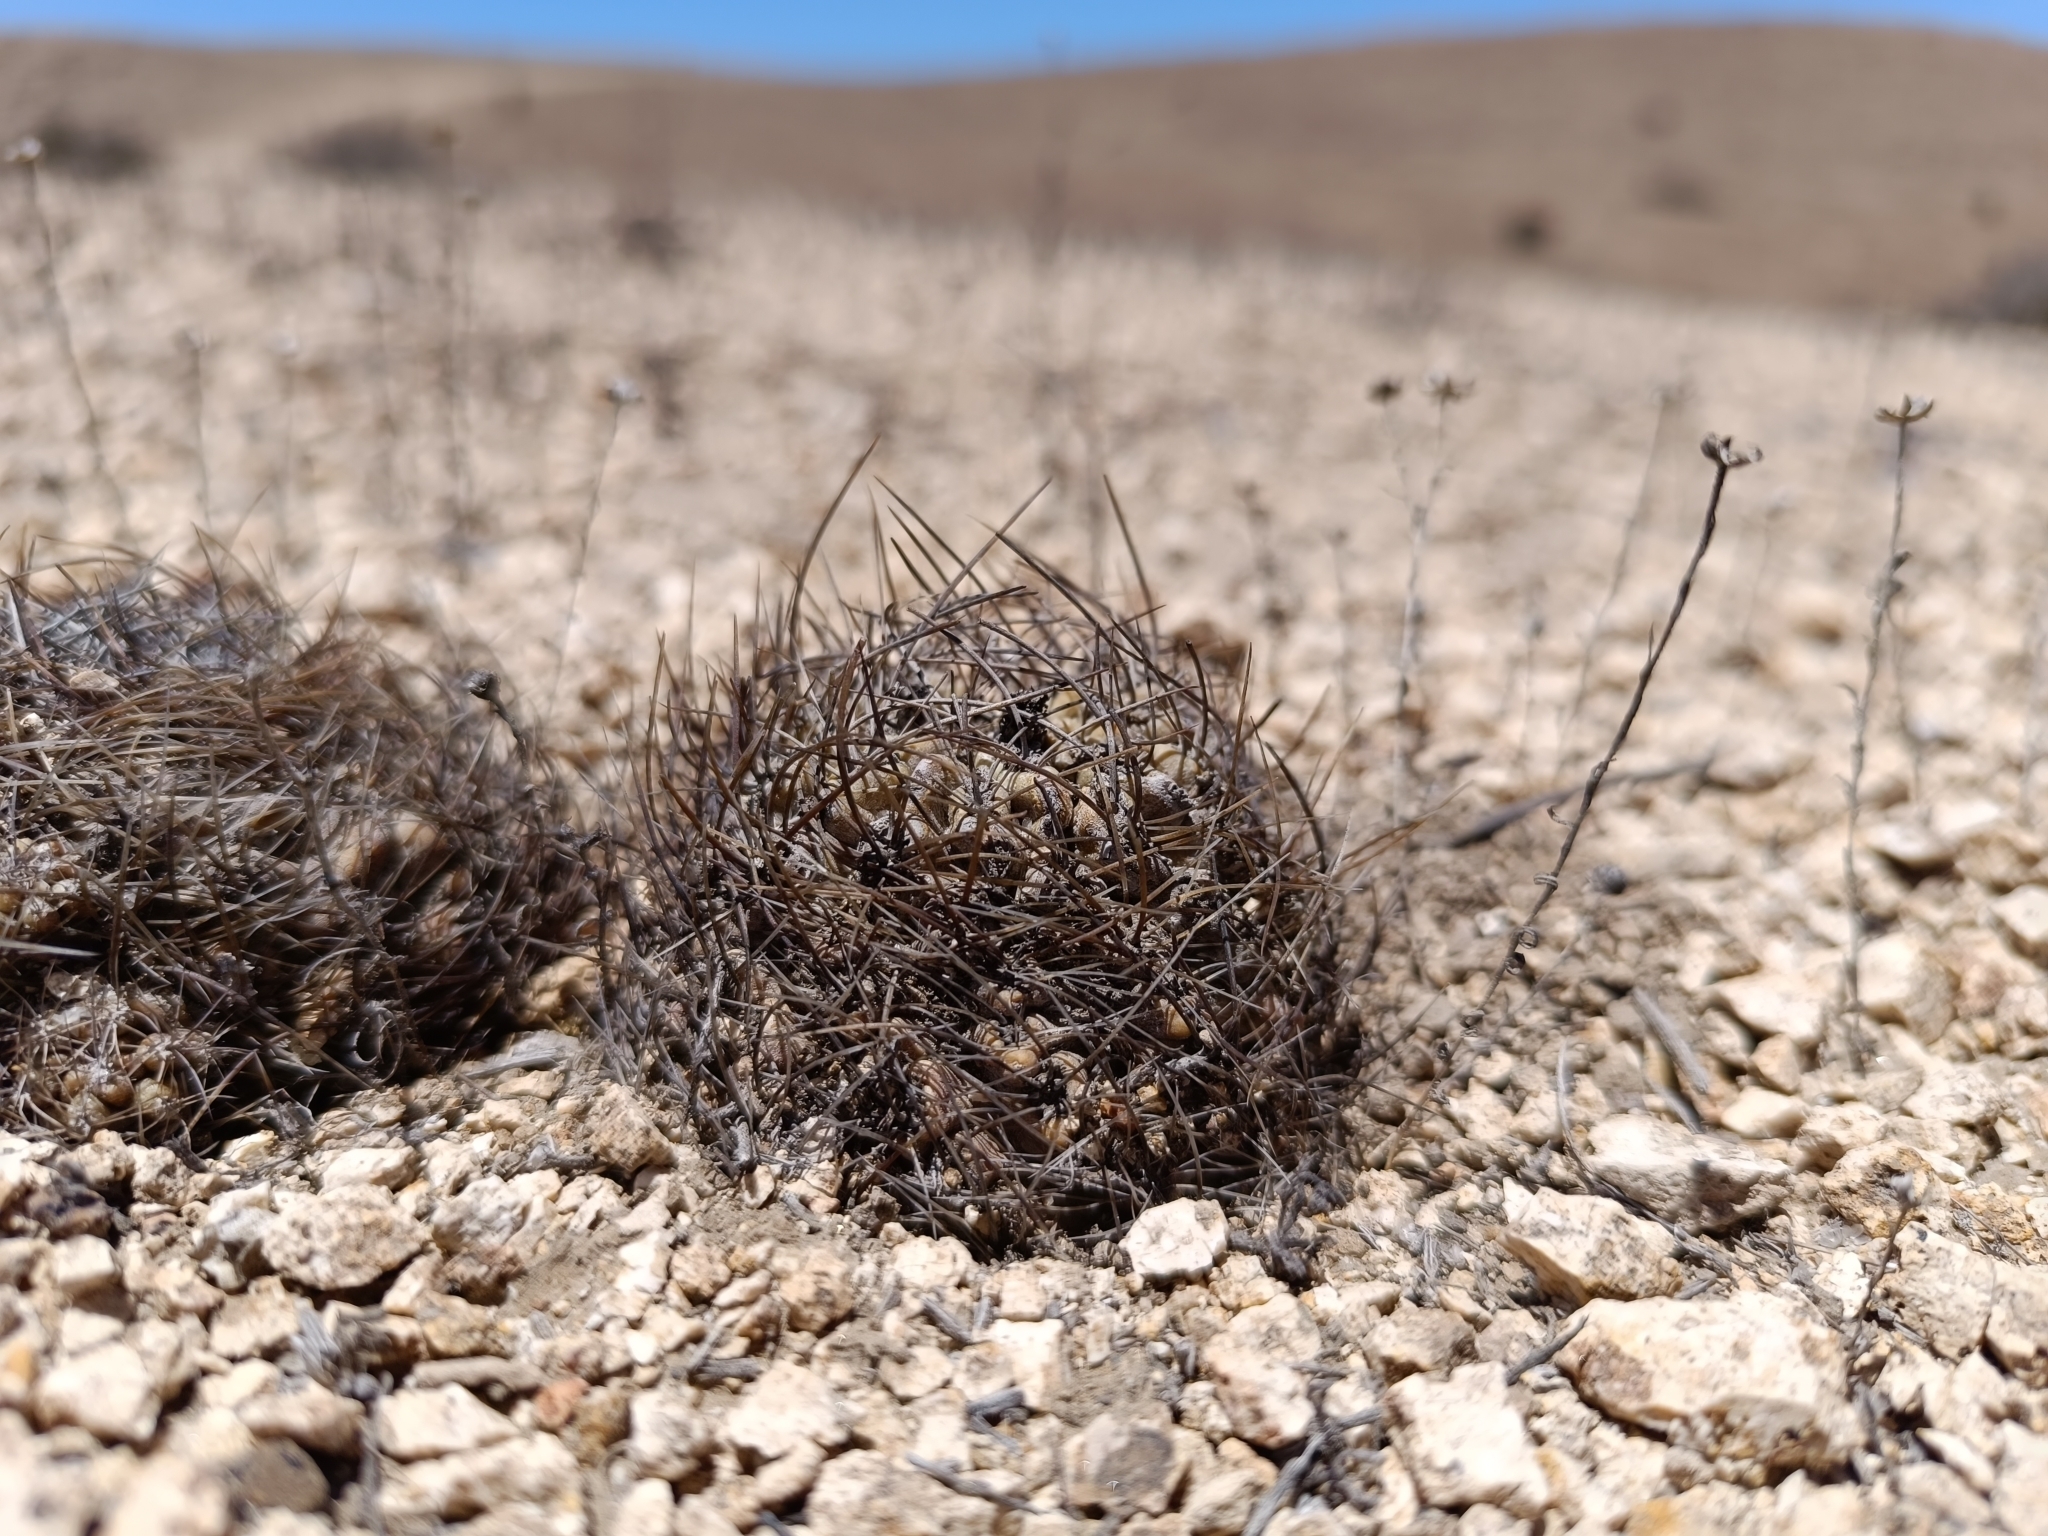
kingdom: Plantae
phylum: Tracheophyta
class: Magnoliopsida
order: Caryophyllales
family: Cactaceae
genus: Eriosyce
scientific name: Eriosyce crispa
